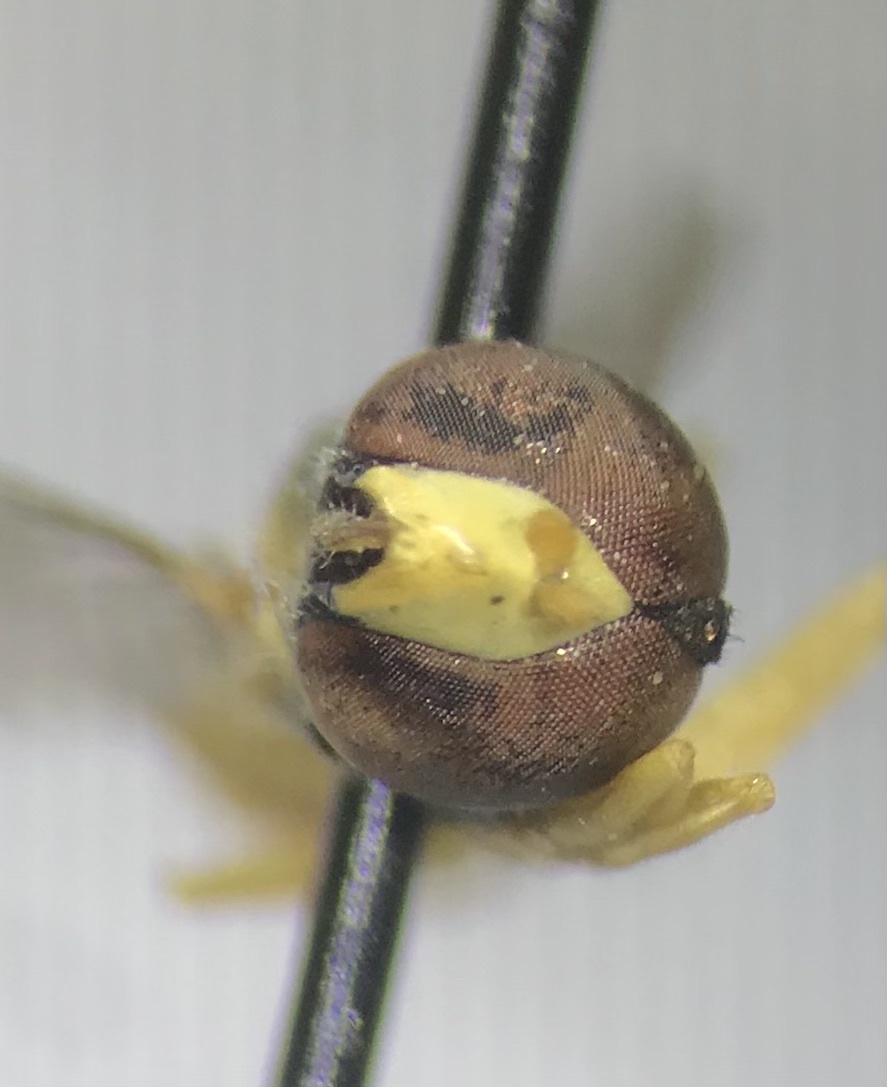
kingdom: Animalia
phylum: Arthropoda
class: Insecta
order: Diptera
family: Syrphidae
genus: Toxomerus
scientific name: Toxomerus marginatus
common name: Syrphid fly
